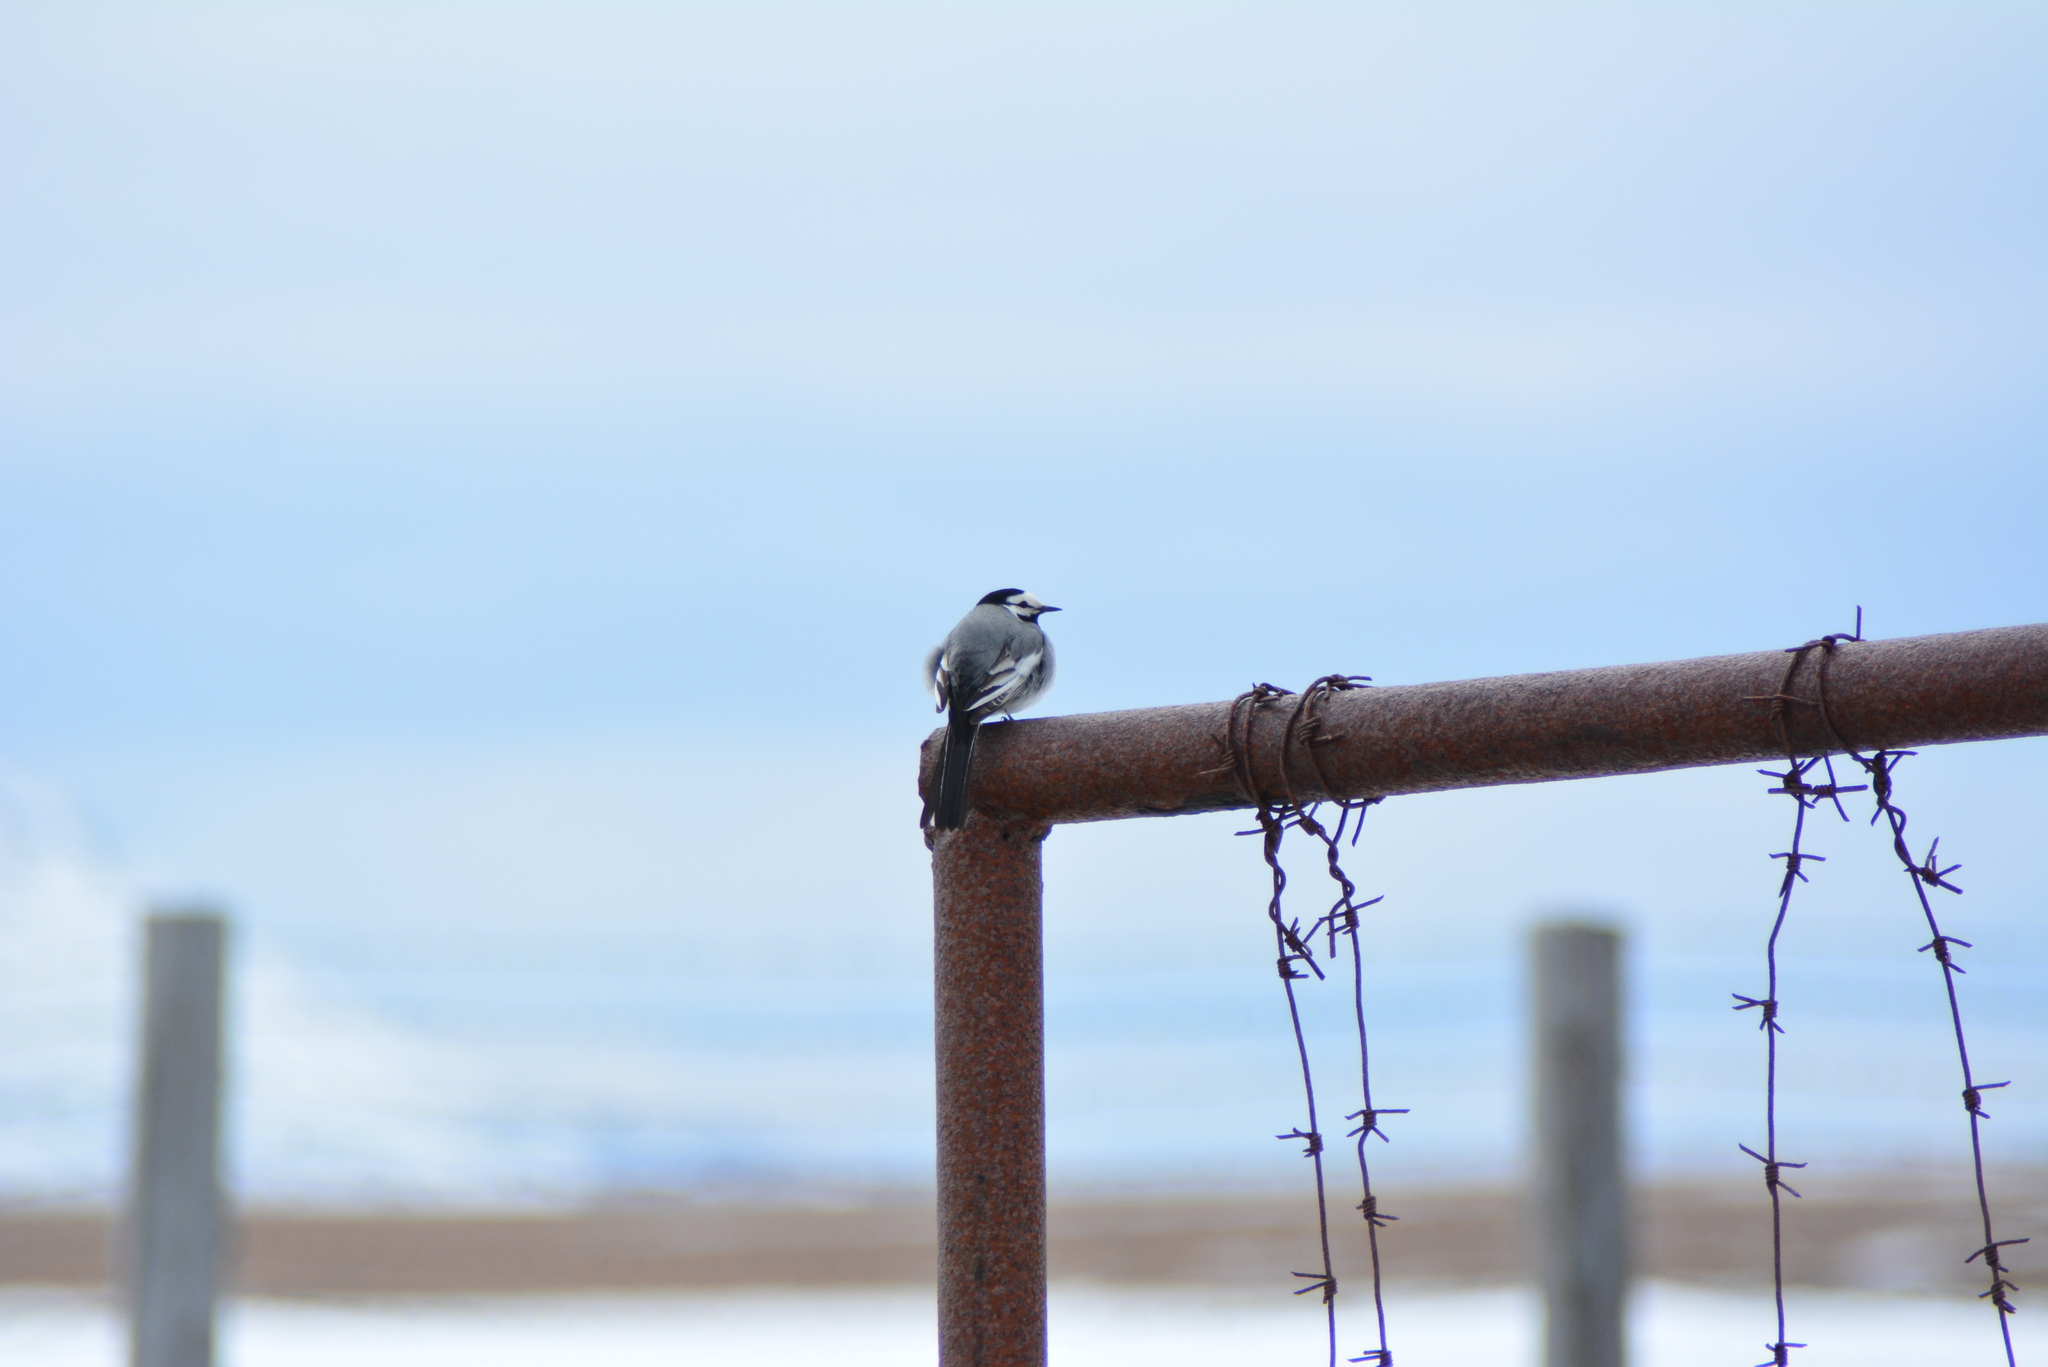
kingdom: Animalia
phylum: Chordata
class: Aves
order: Passeriformes
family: Motacillidae
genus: Motacilla
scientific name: Motacilla alba
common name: White wagtail
